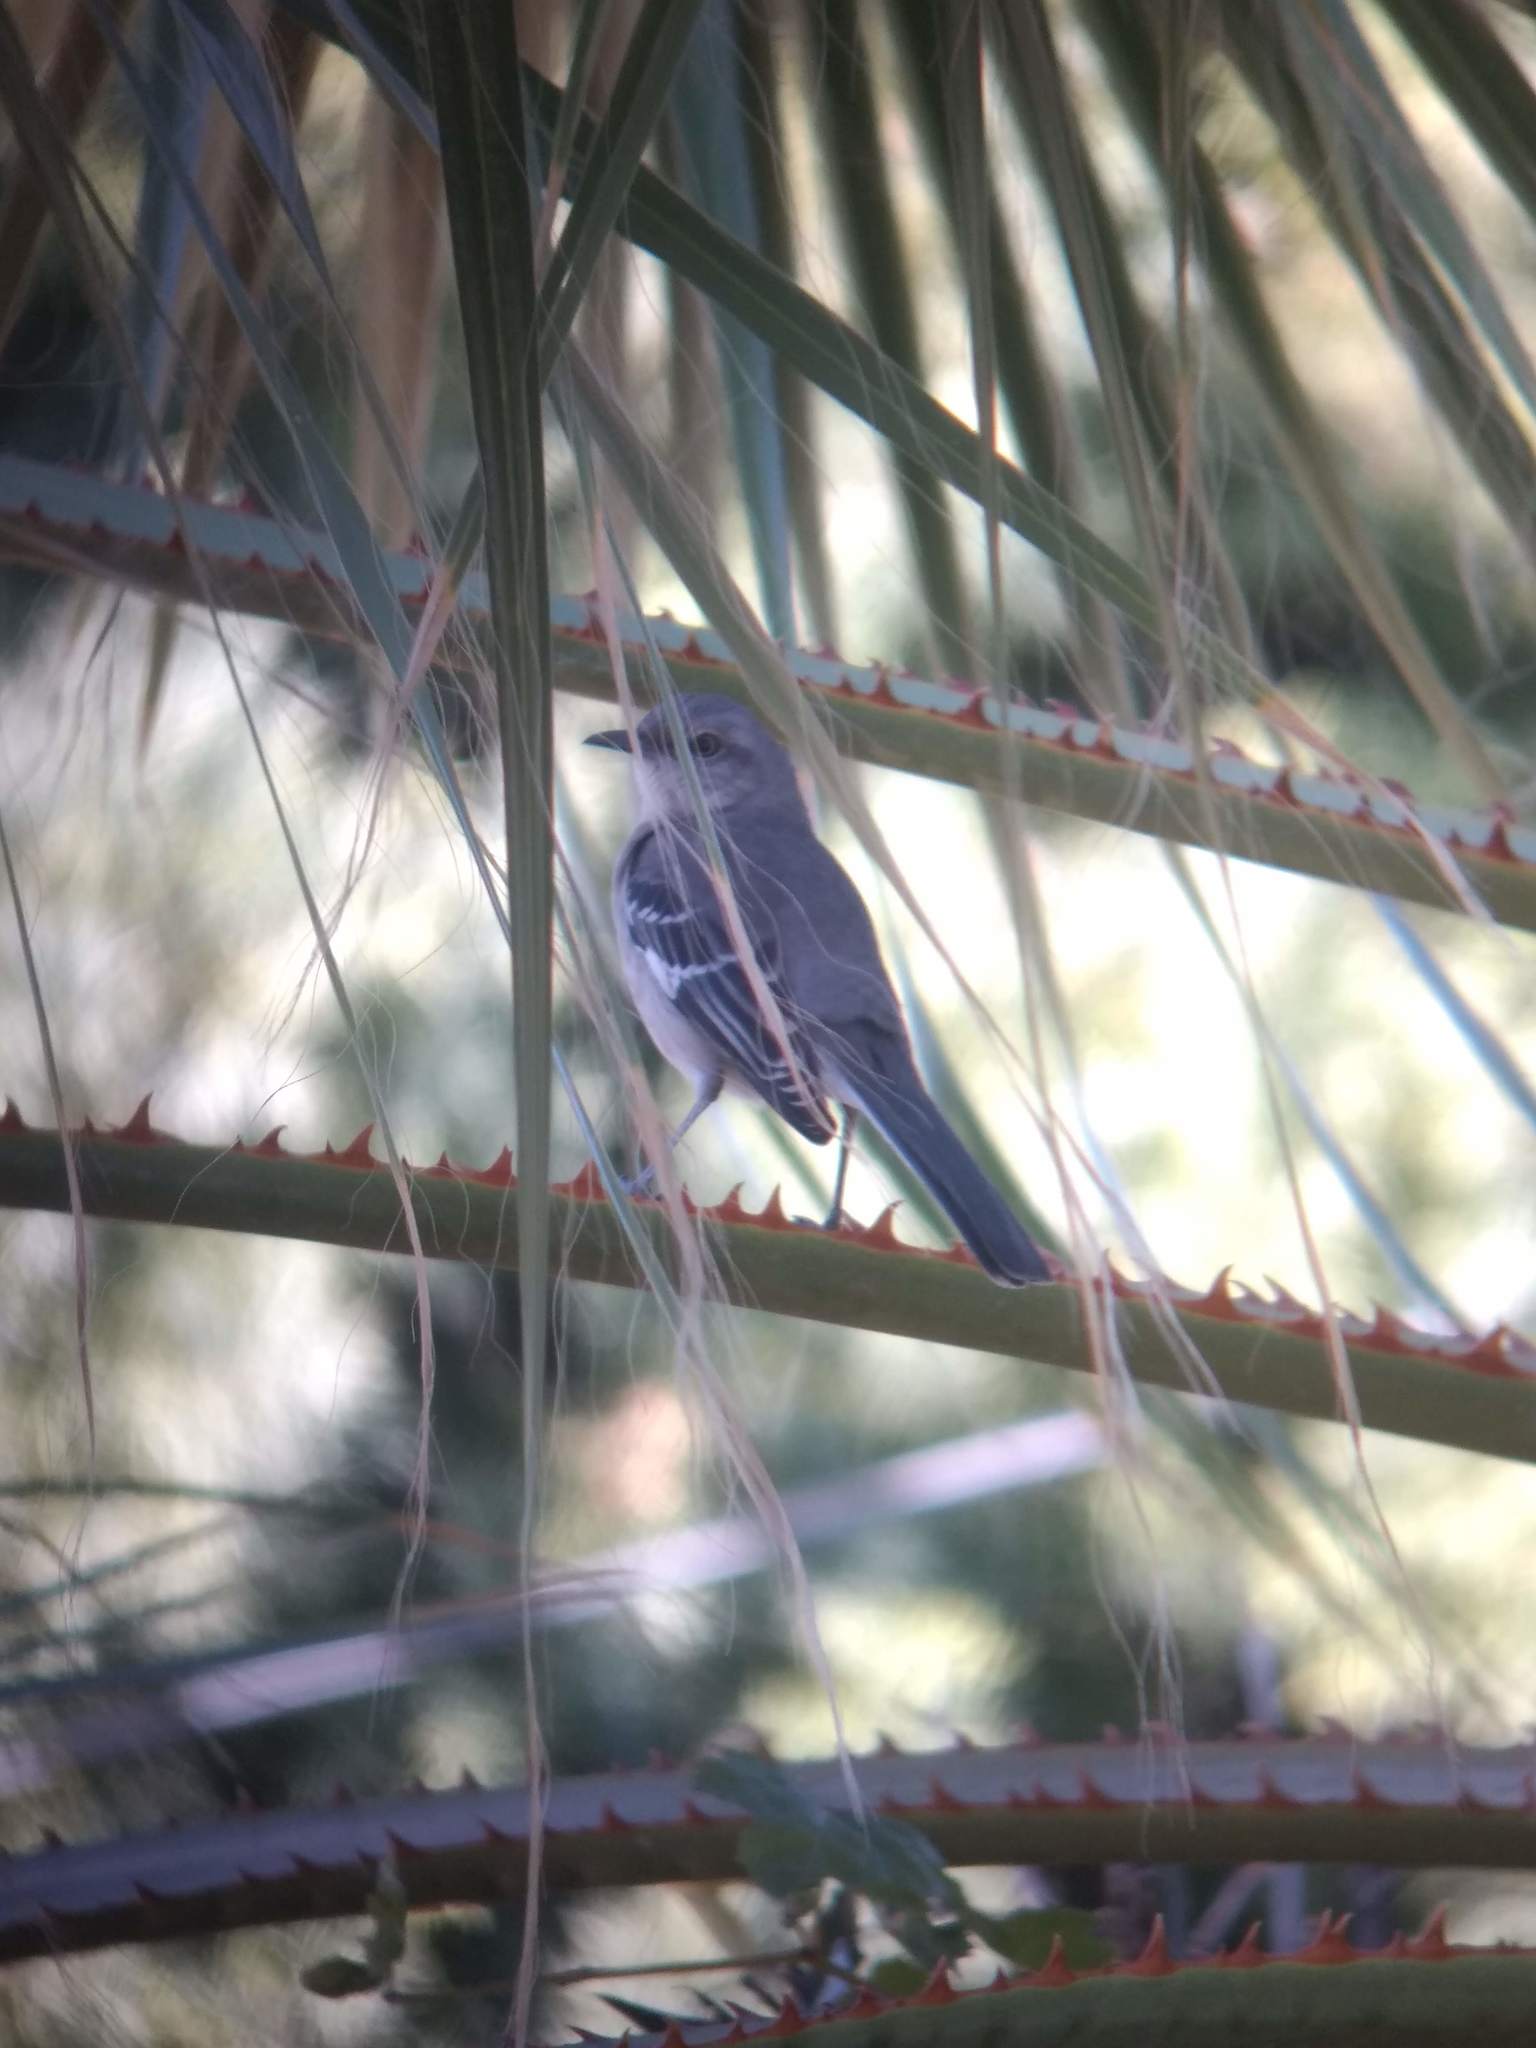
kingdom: Animalia
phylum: Chordata
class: Aves
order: Passeriformes
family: Mimidae
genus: Mimus
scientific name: Mimus polyglottos
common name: Northern mockingbird
